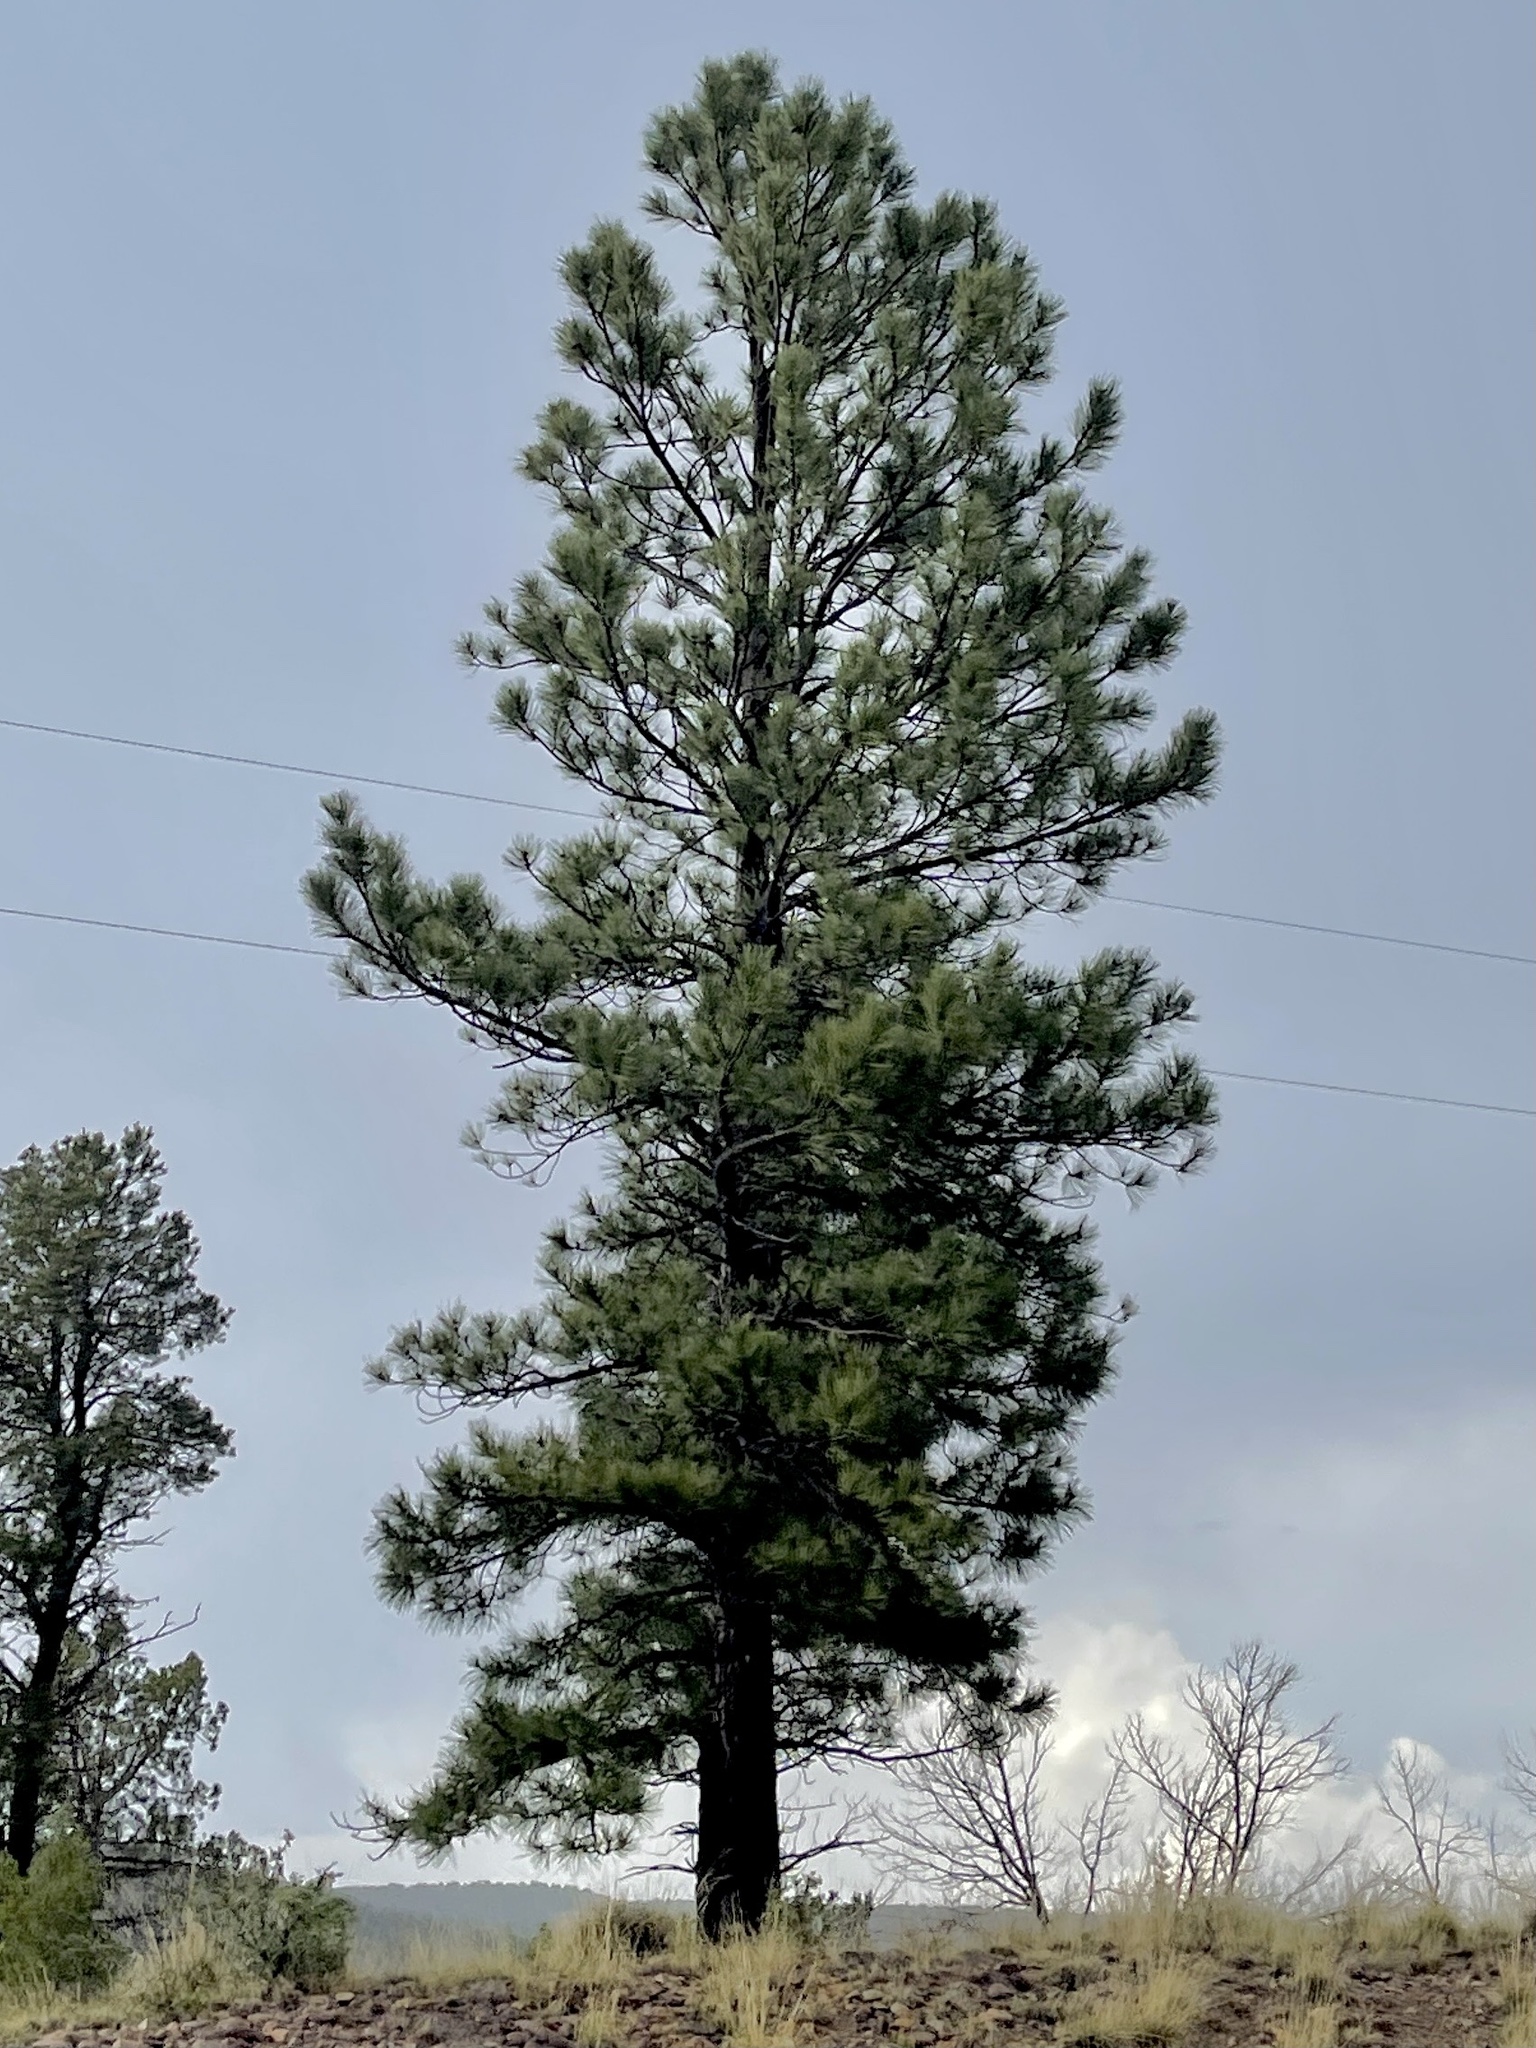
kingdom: Plantae
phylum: Tracheophyta
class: Pinopsida
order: Pinales
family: Pinaceae
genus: Pinus
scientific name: Pinus ponderosa
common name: Western yellow-pine
